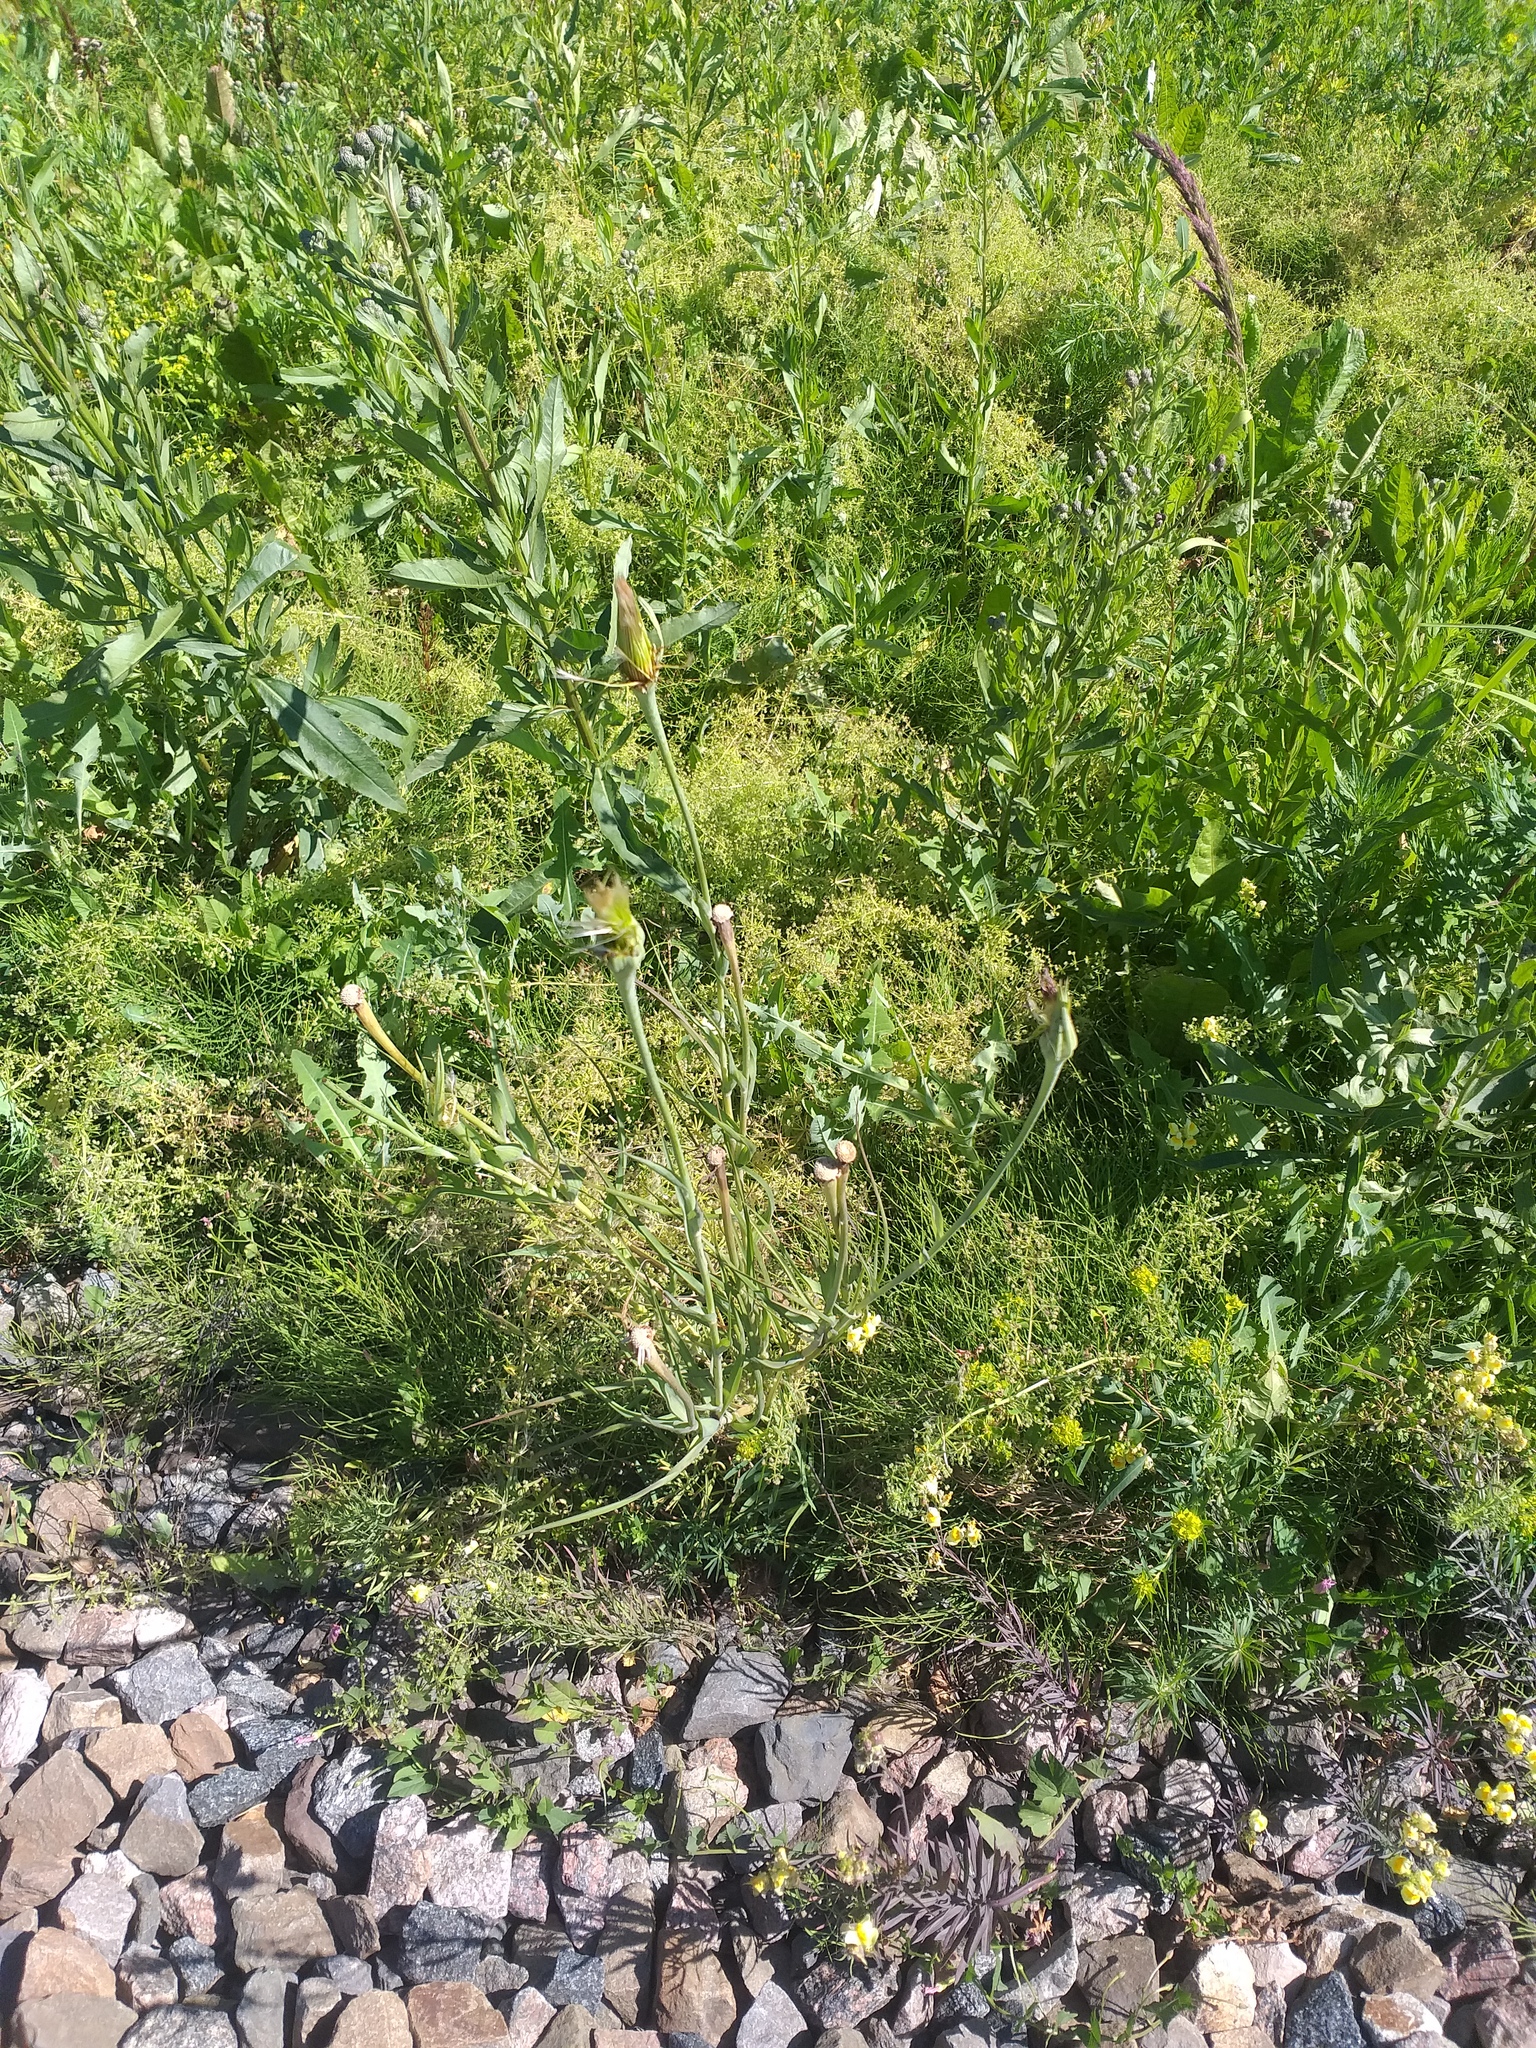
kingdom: Plantae
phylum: Tracheophyta
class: Magnoliopsida
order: Asterales
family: Asteraceae
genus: Tragopogon
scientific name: Tragopogon dubius
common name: Yellow salsify
